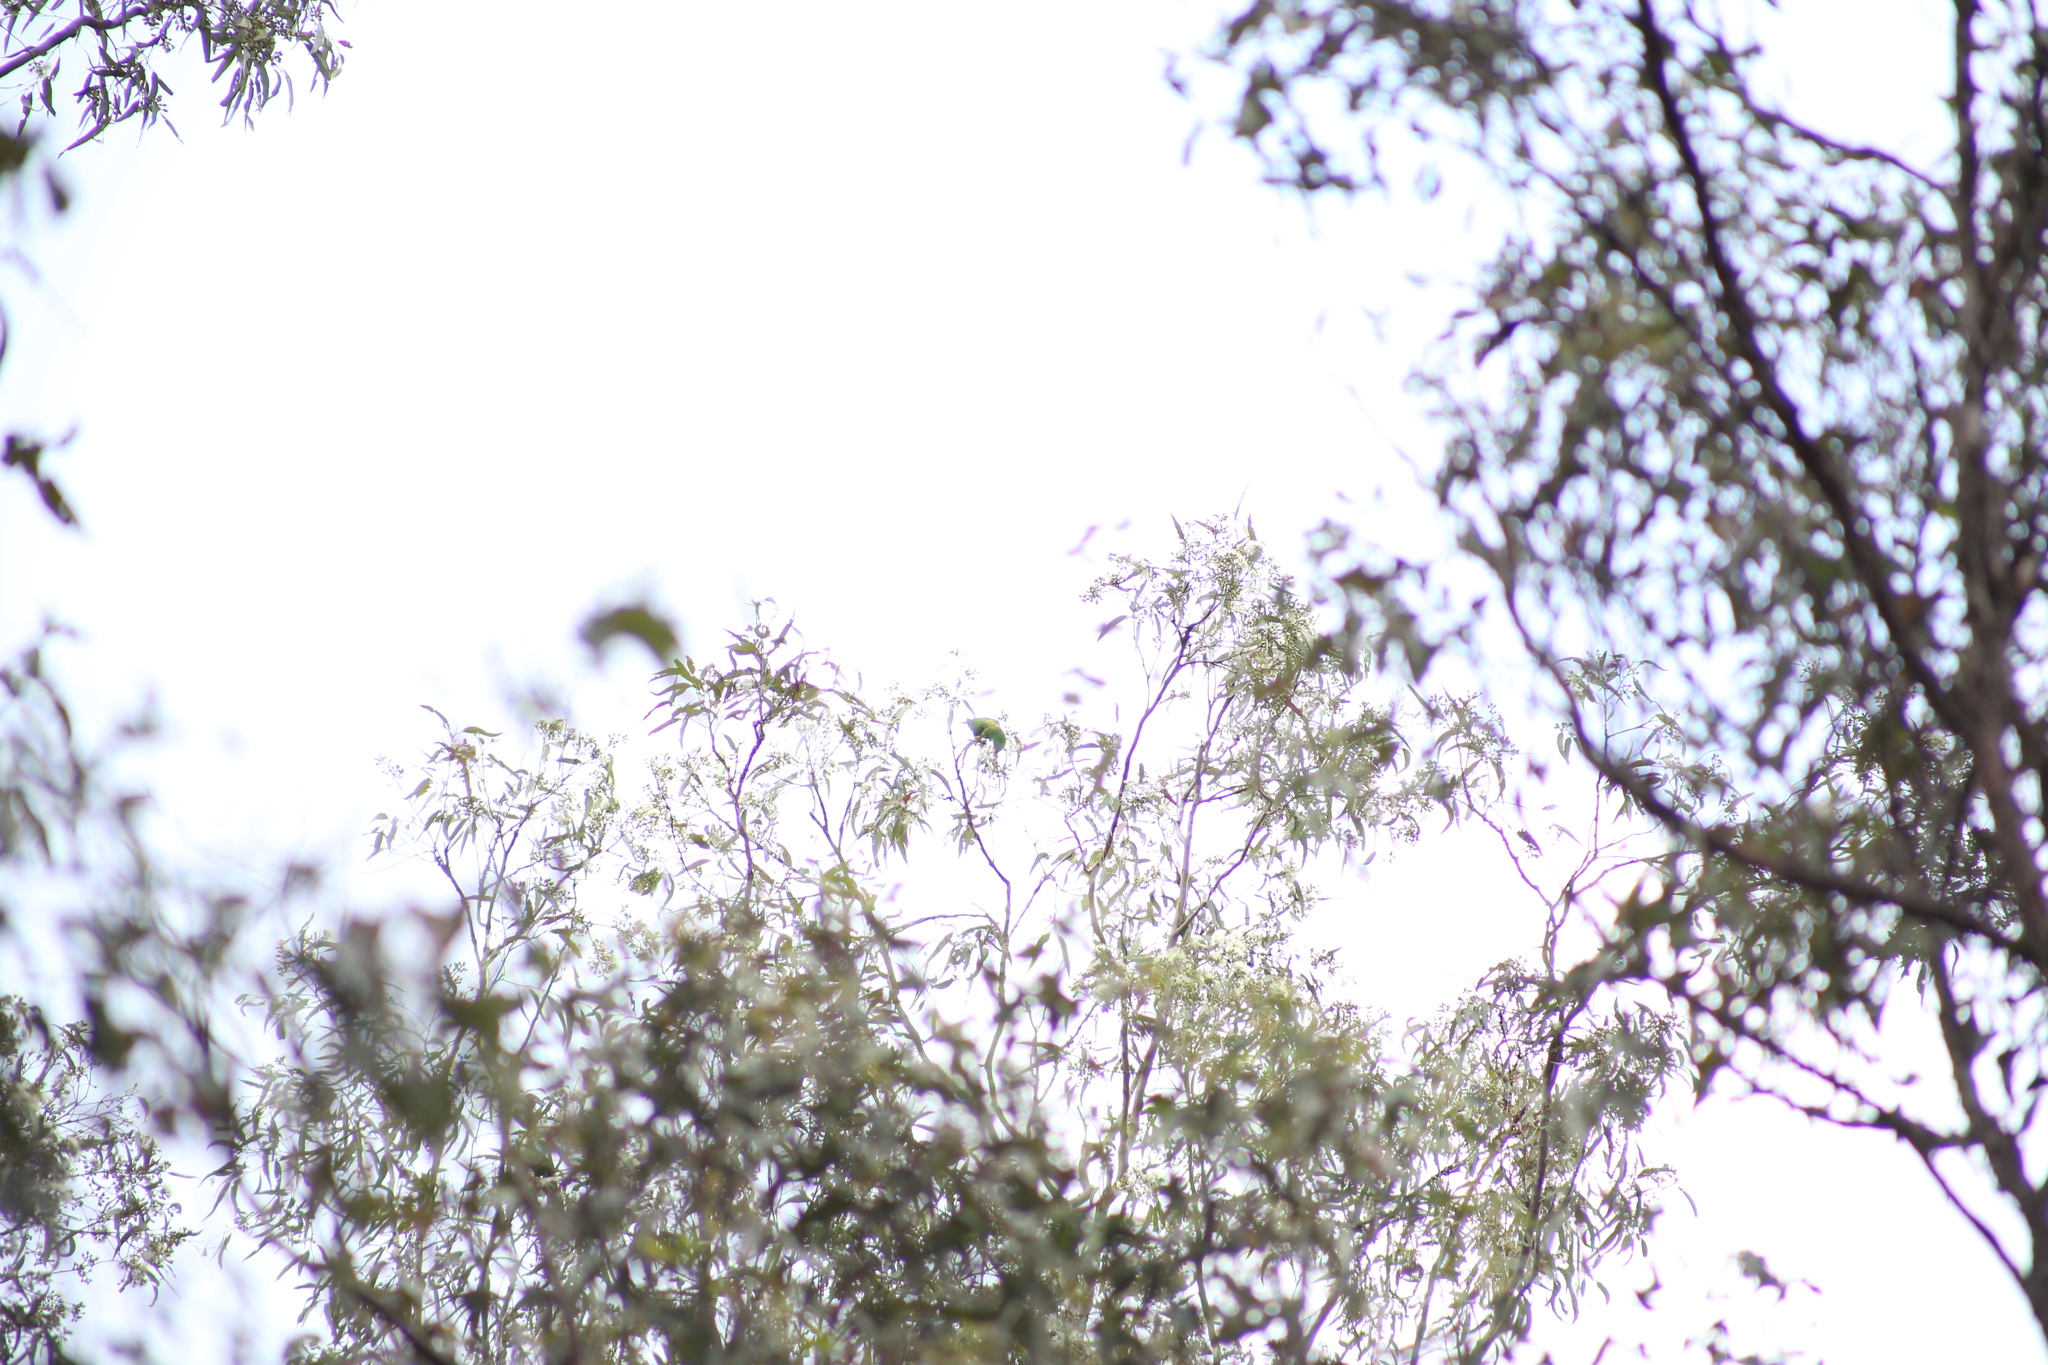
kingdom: Animalia
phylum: Chordata
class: Aves
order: Psittaciformes
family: Psittacidae
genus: Trichoglossus
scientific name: Trichoglossus chlorolepidotus
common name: Scaly-breasted lorikeet
